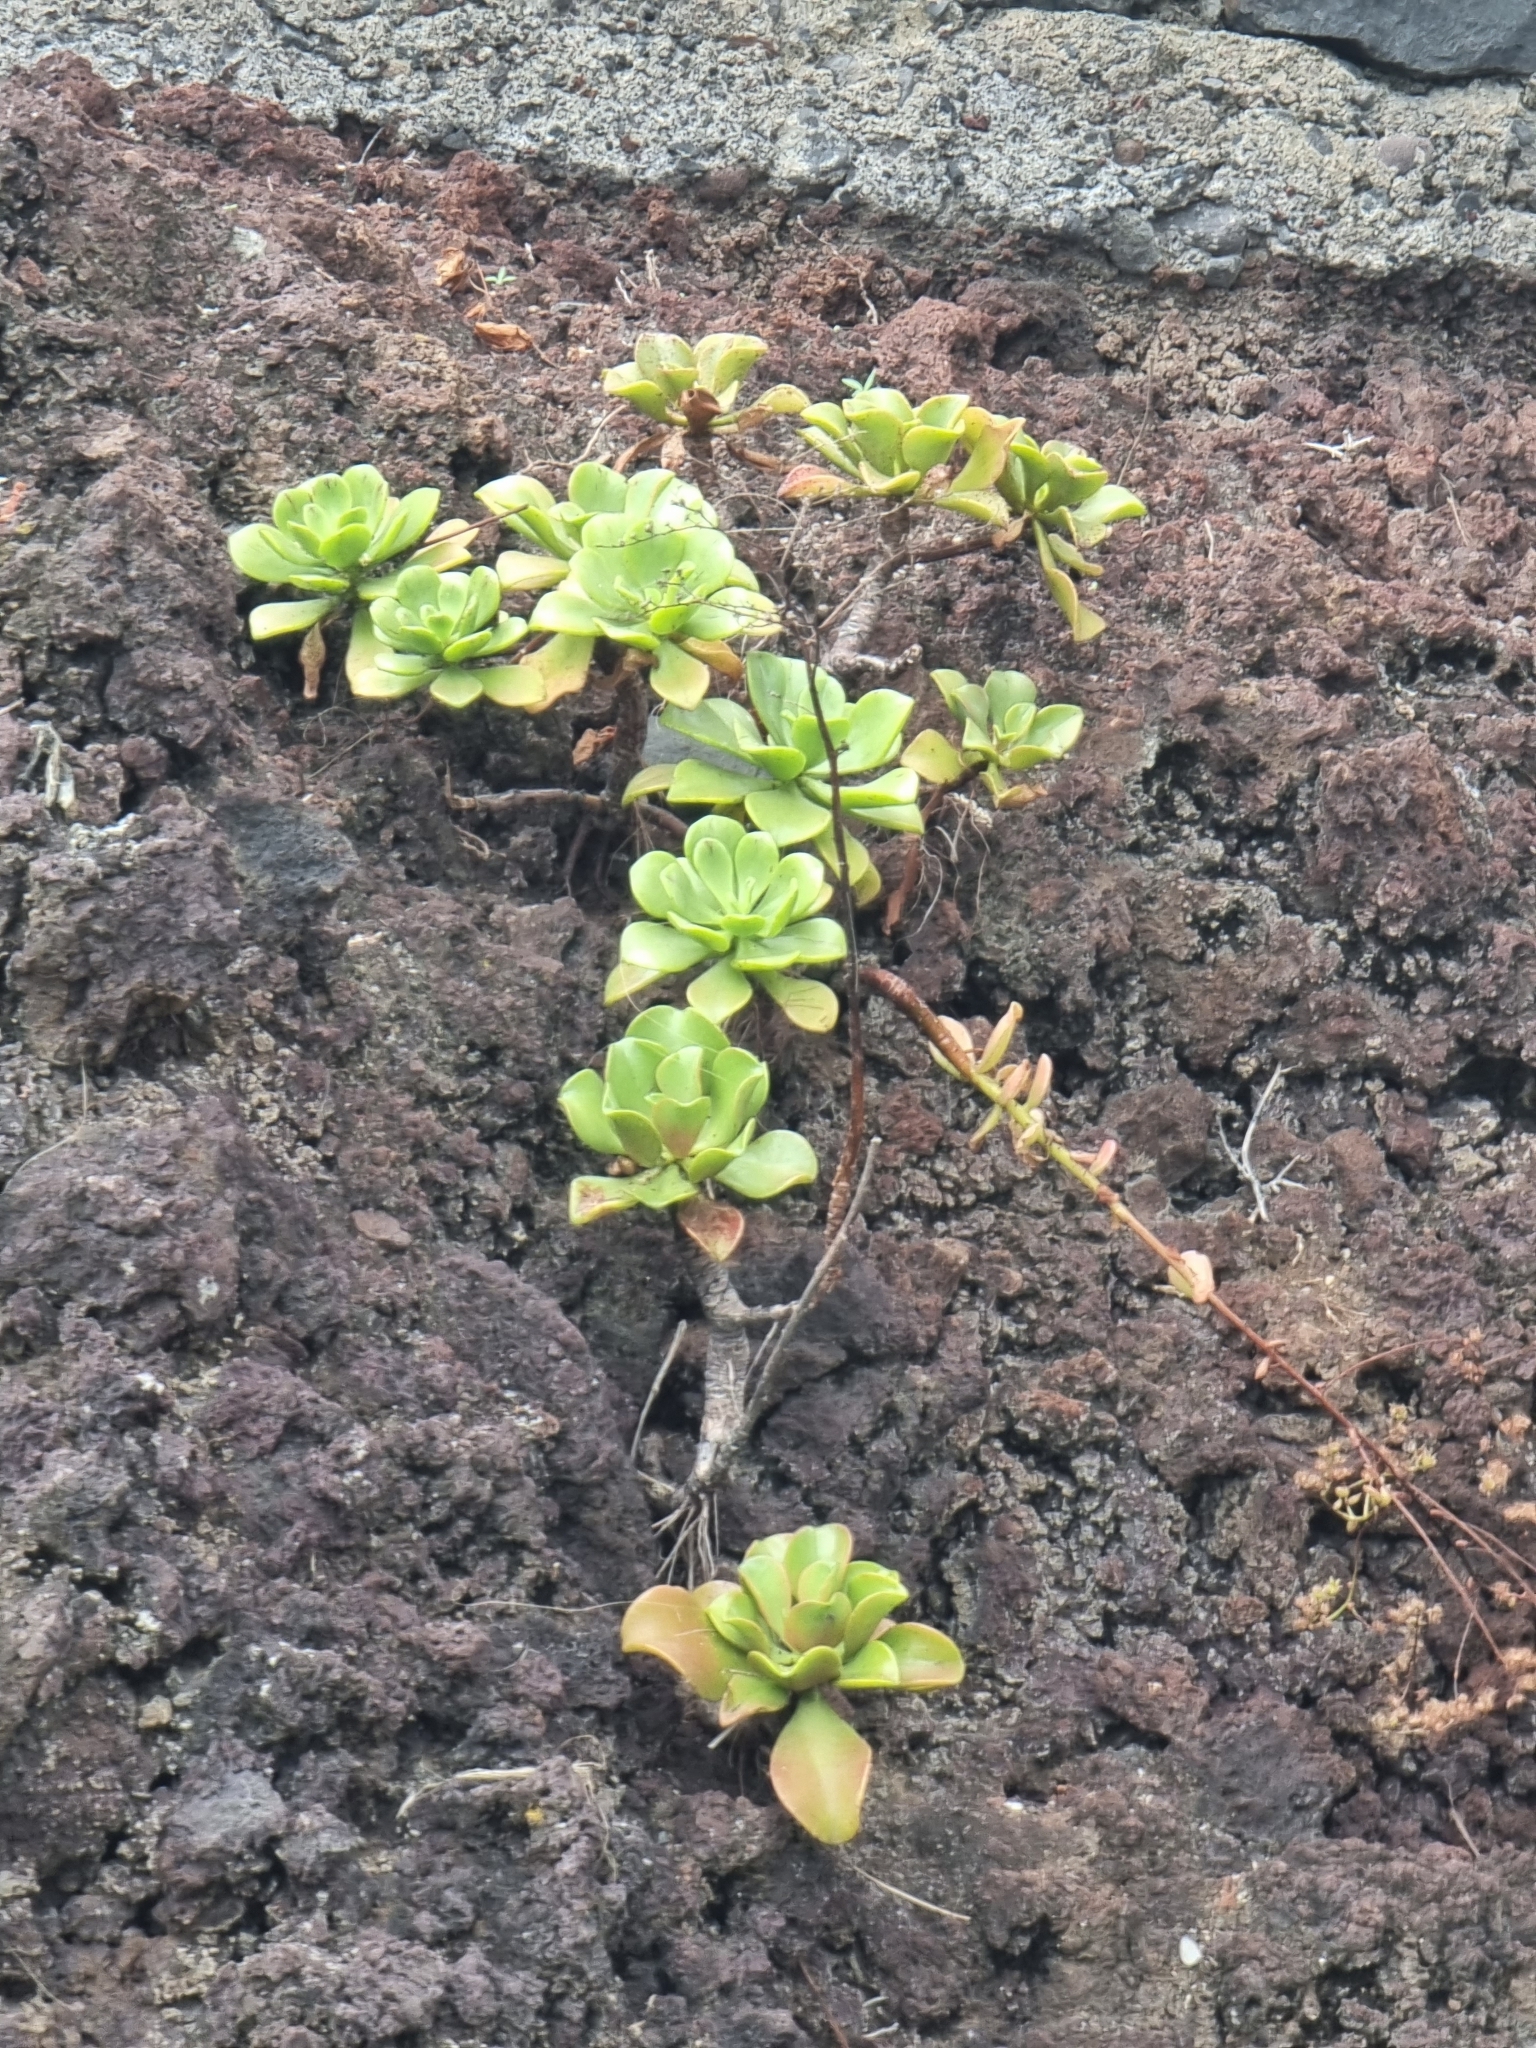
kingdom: Plantae
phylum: Tracheophyta
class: Magnoliopsida
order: Saxifragales
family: Crassulaceae
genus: Aeonium
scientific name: Aeonium glutinosum
